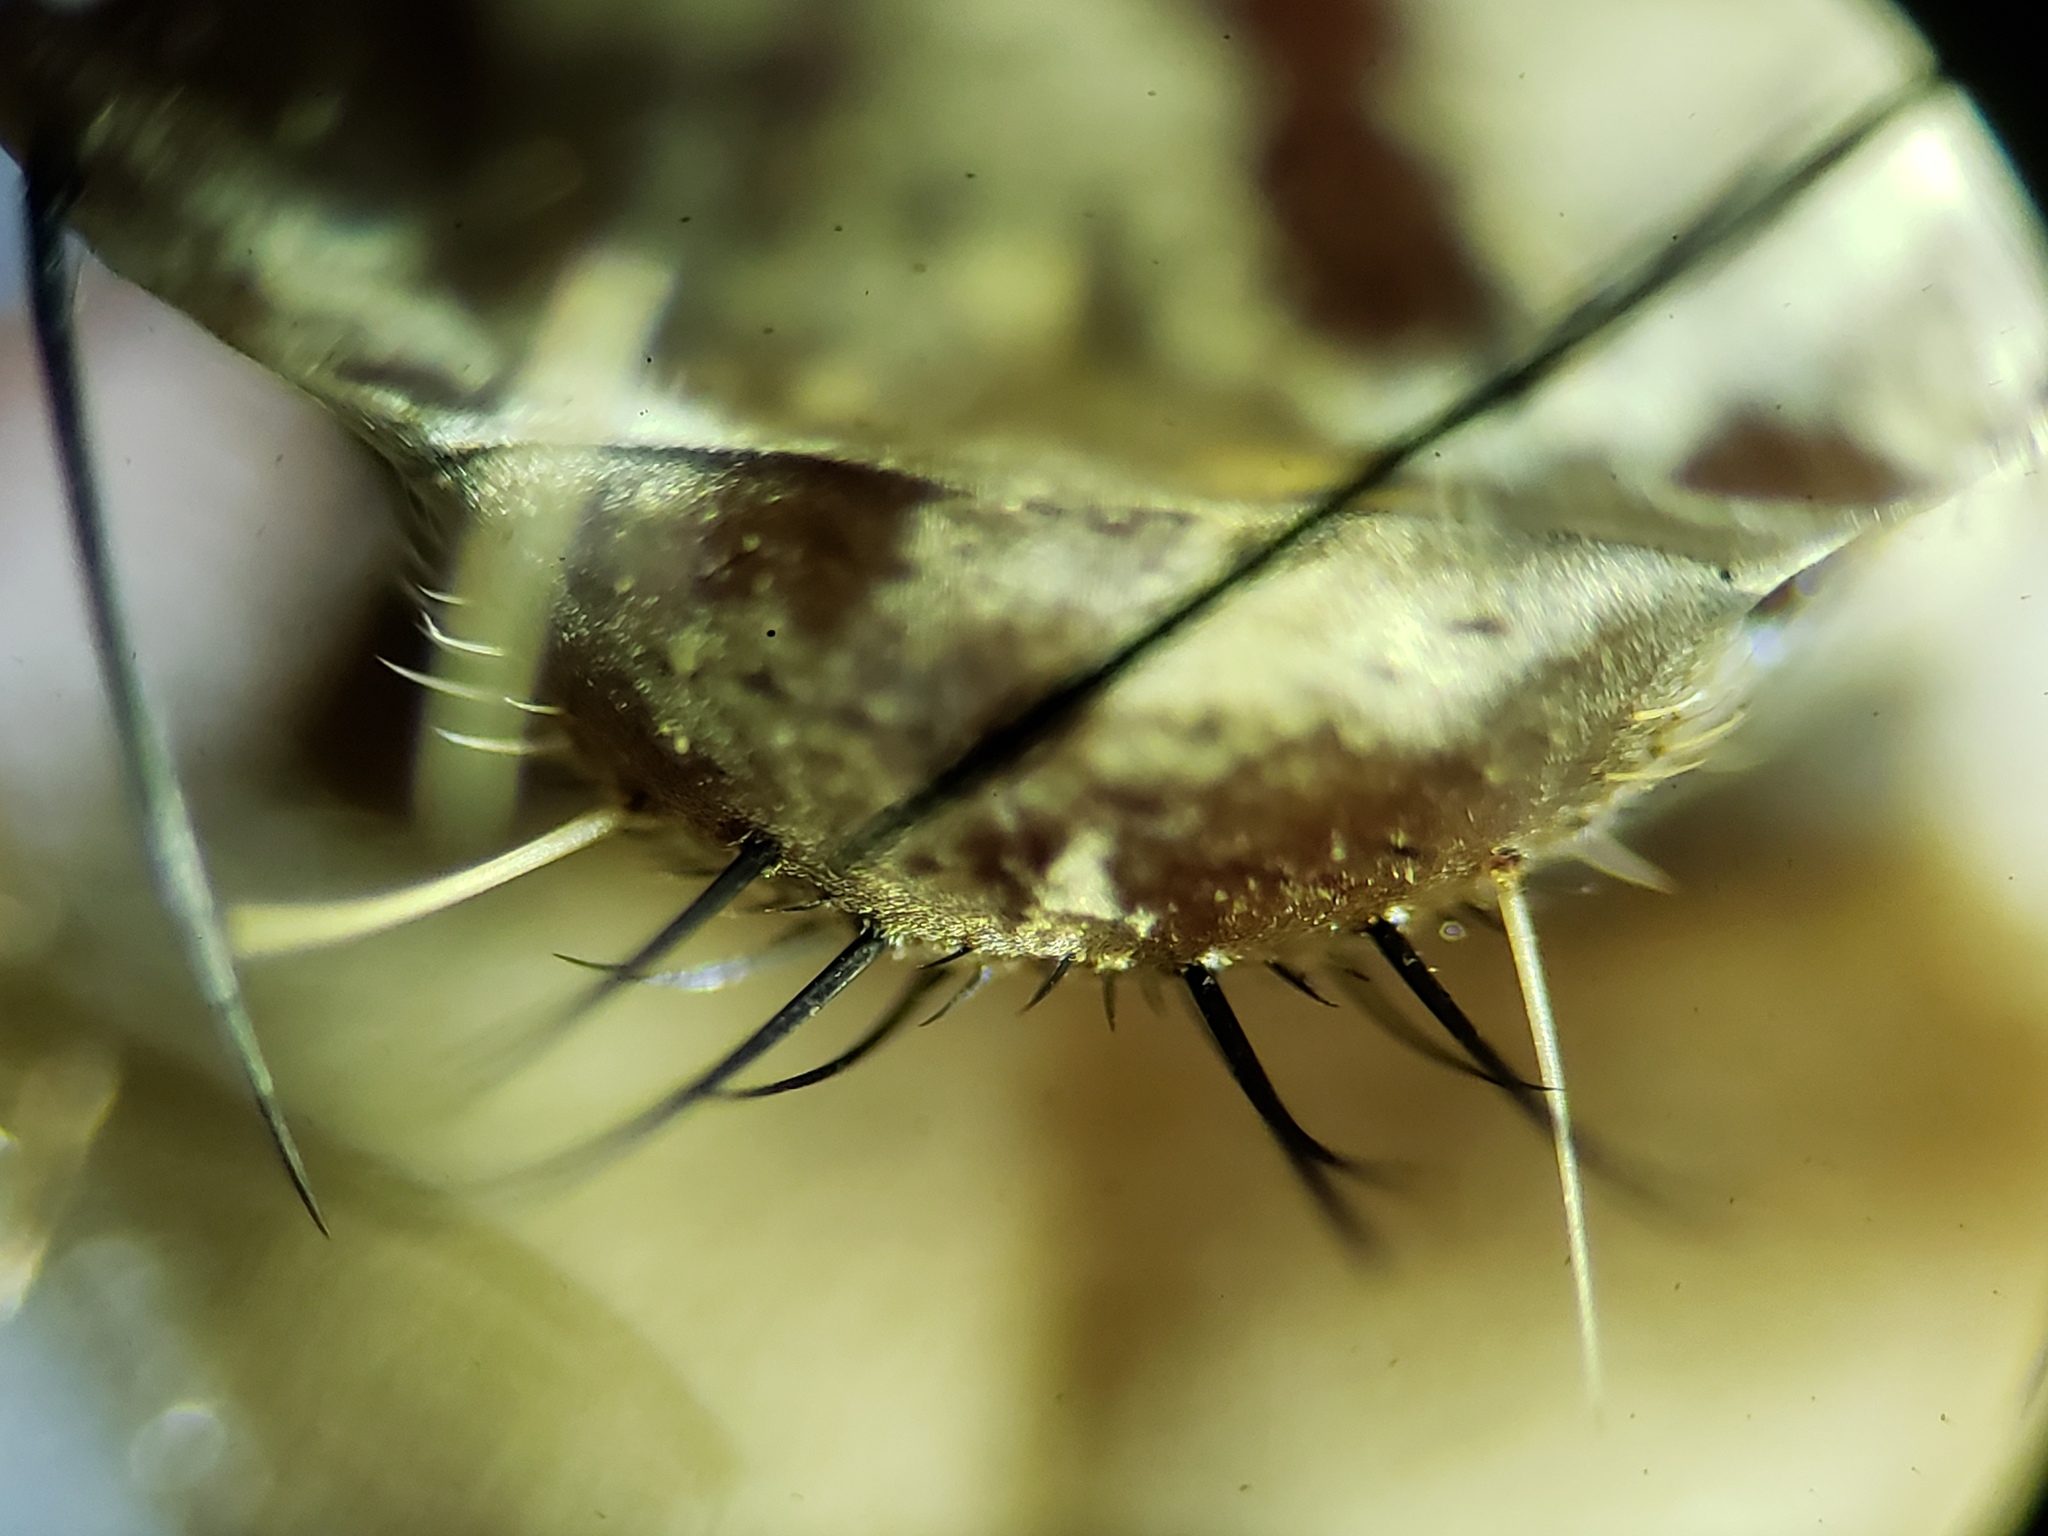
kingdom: Animalia
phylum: Arthropoda
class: Insecta
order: Diptera
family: Asilidae
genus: Proctacanthus
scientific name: Proctacanthus gracilis
